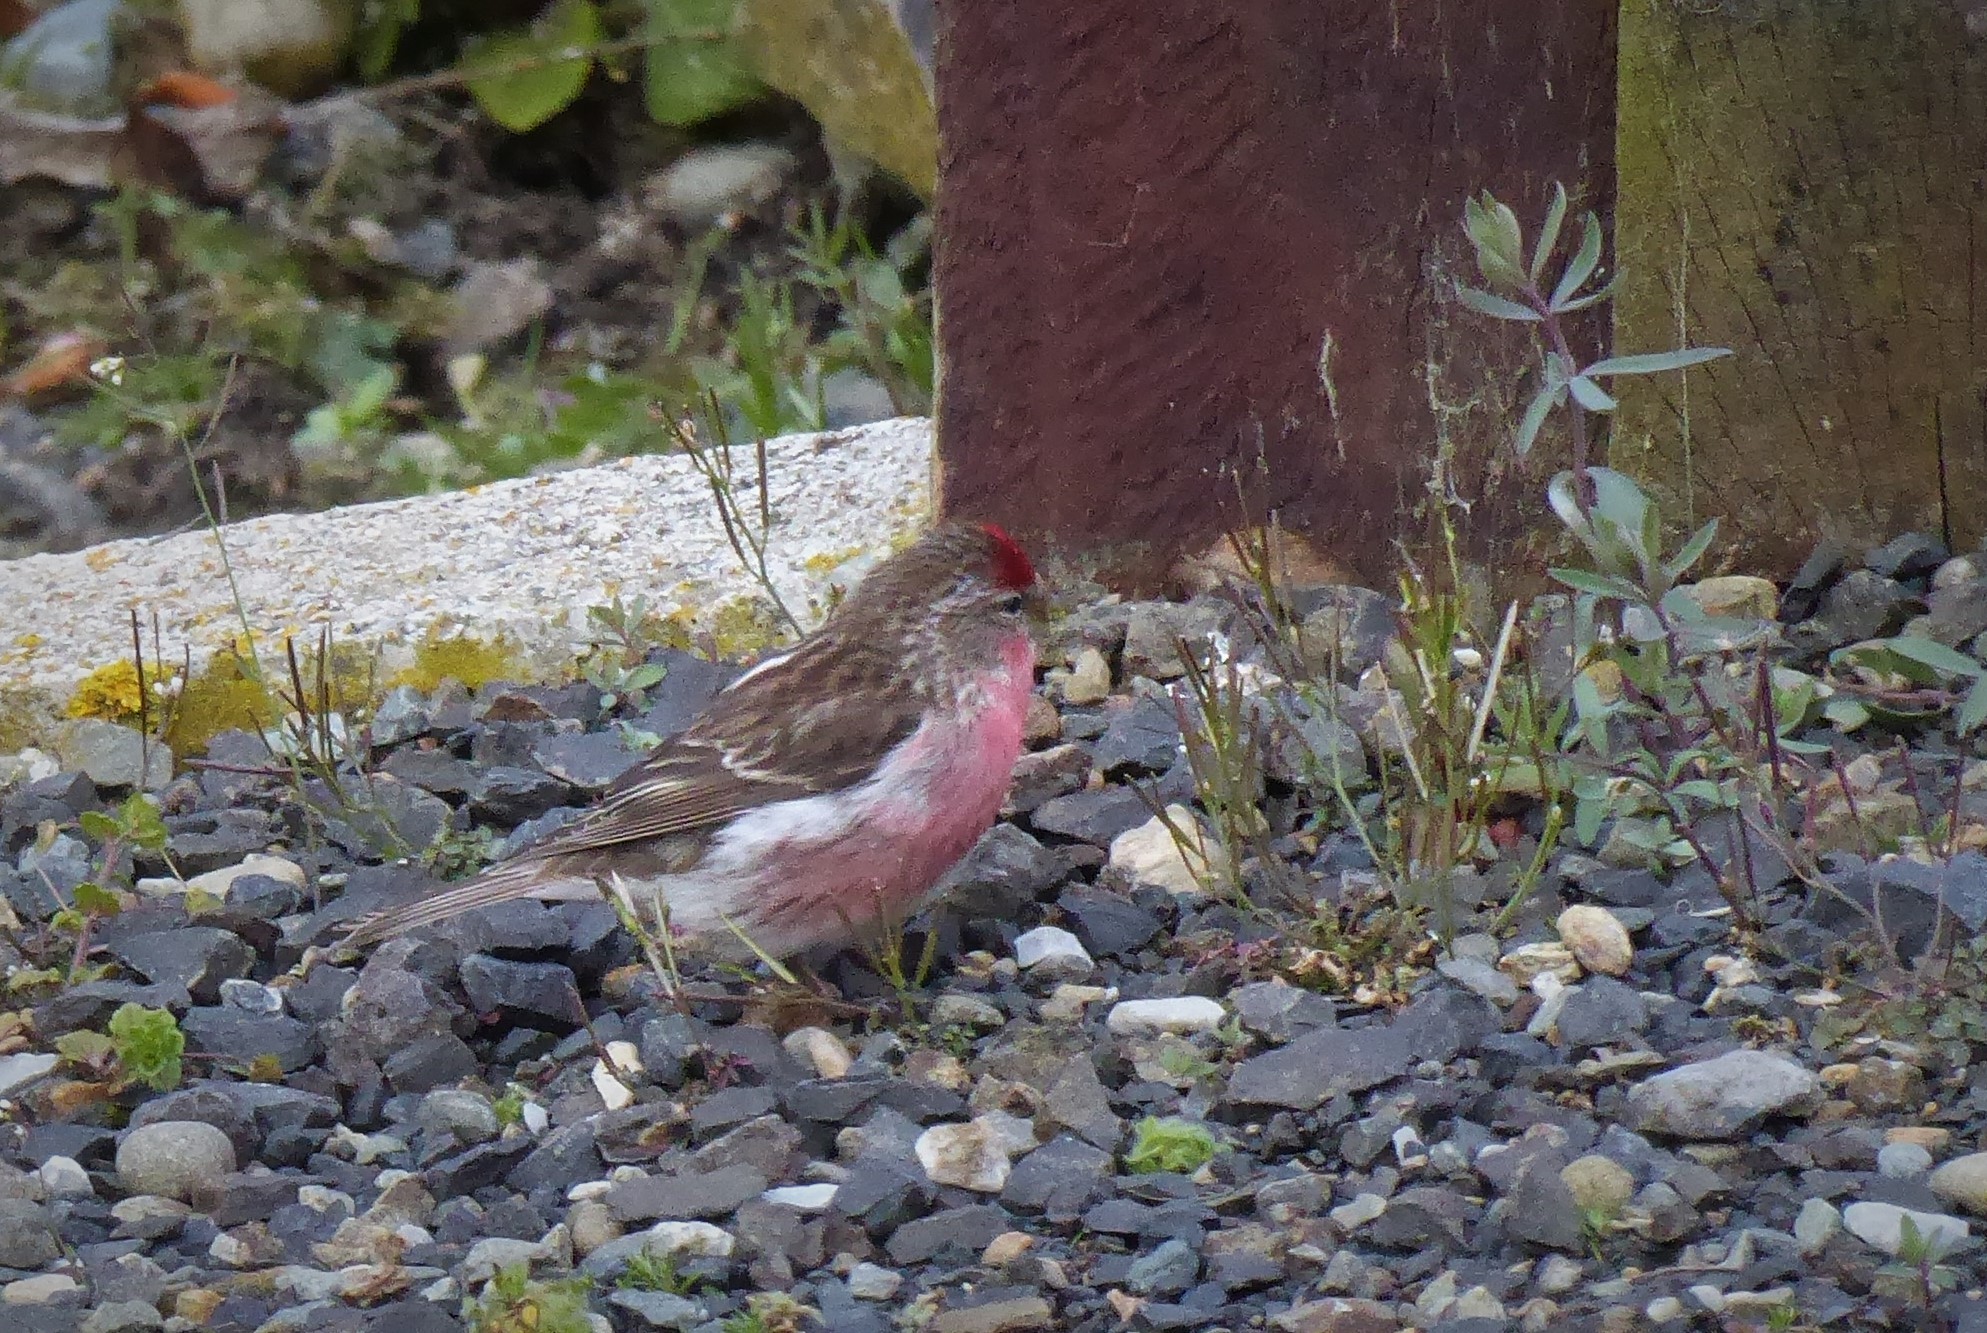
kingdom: Animalia
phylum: Chordata
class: Aves
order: Passeriformes
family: Fringillidae
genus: Acanthis
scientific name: Acanthis flammea
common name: Common redpoll
